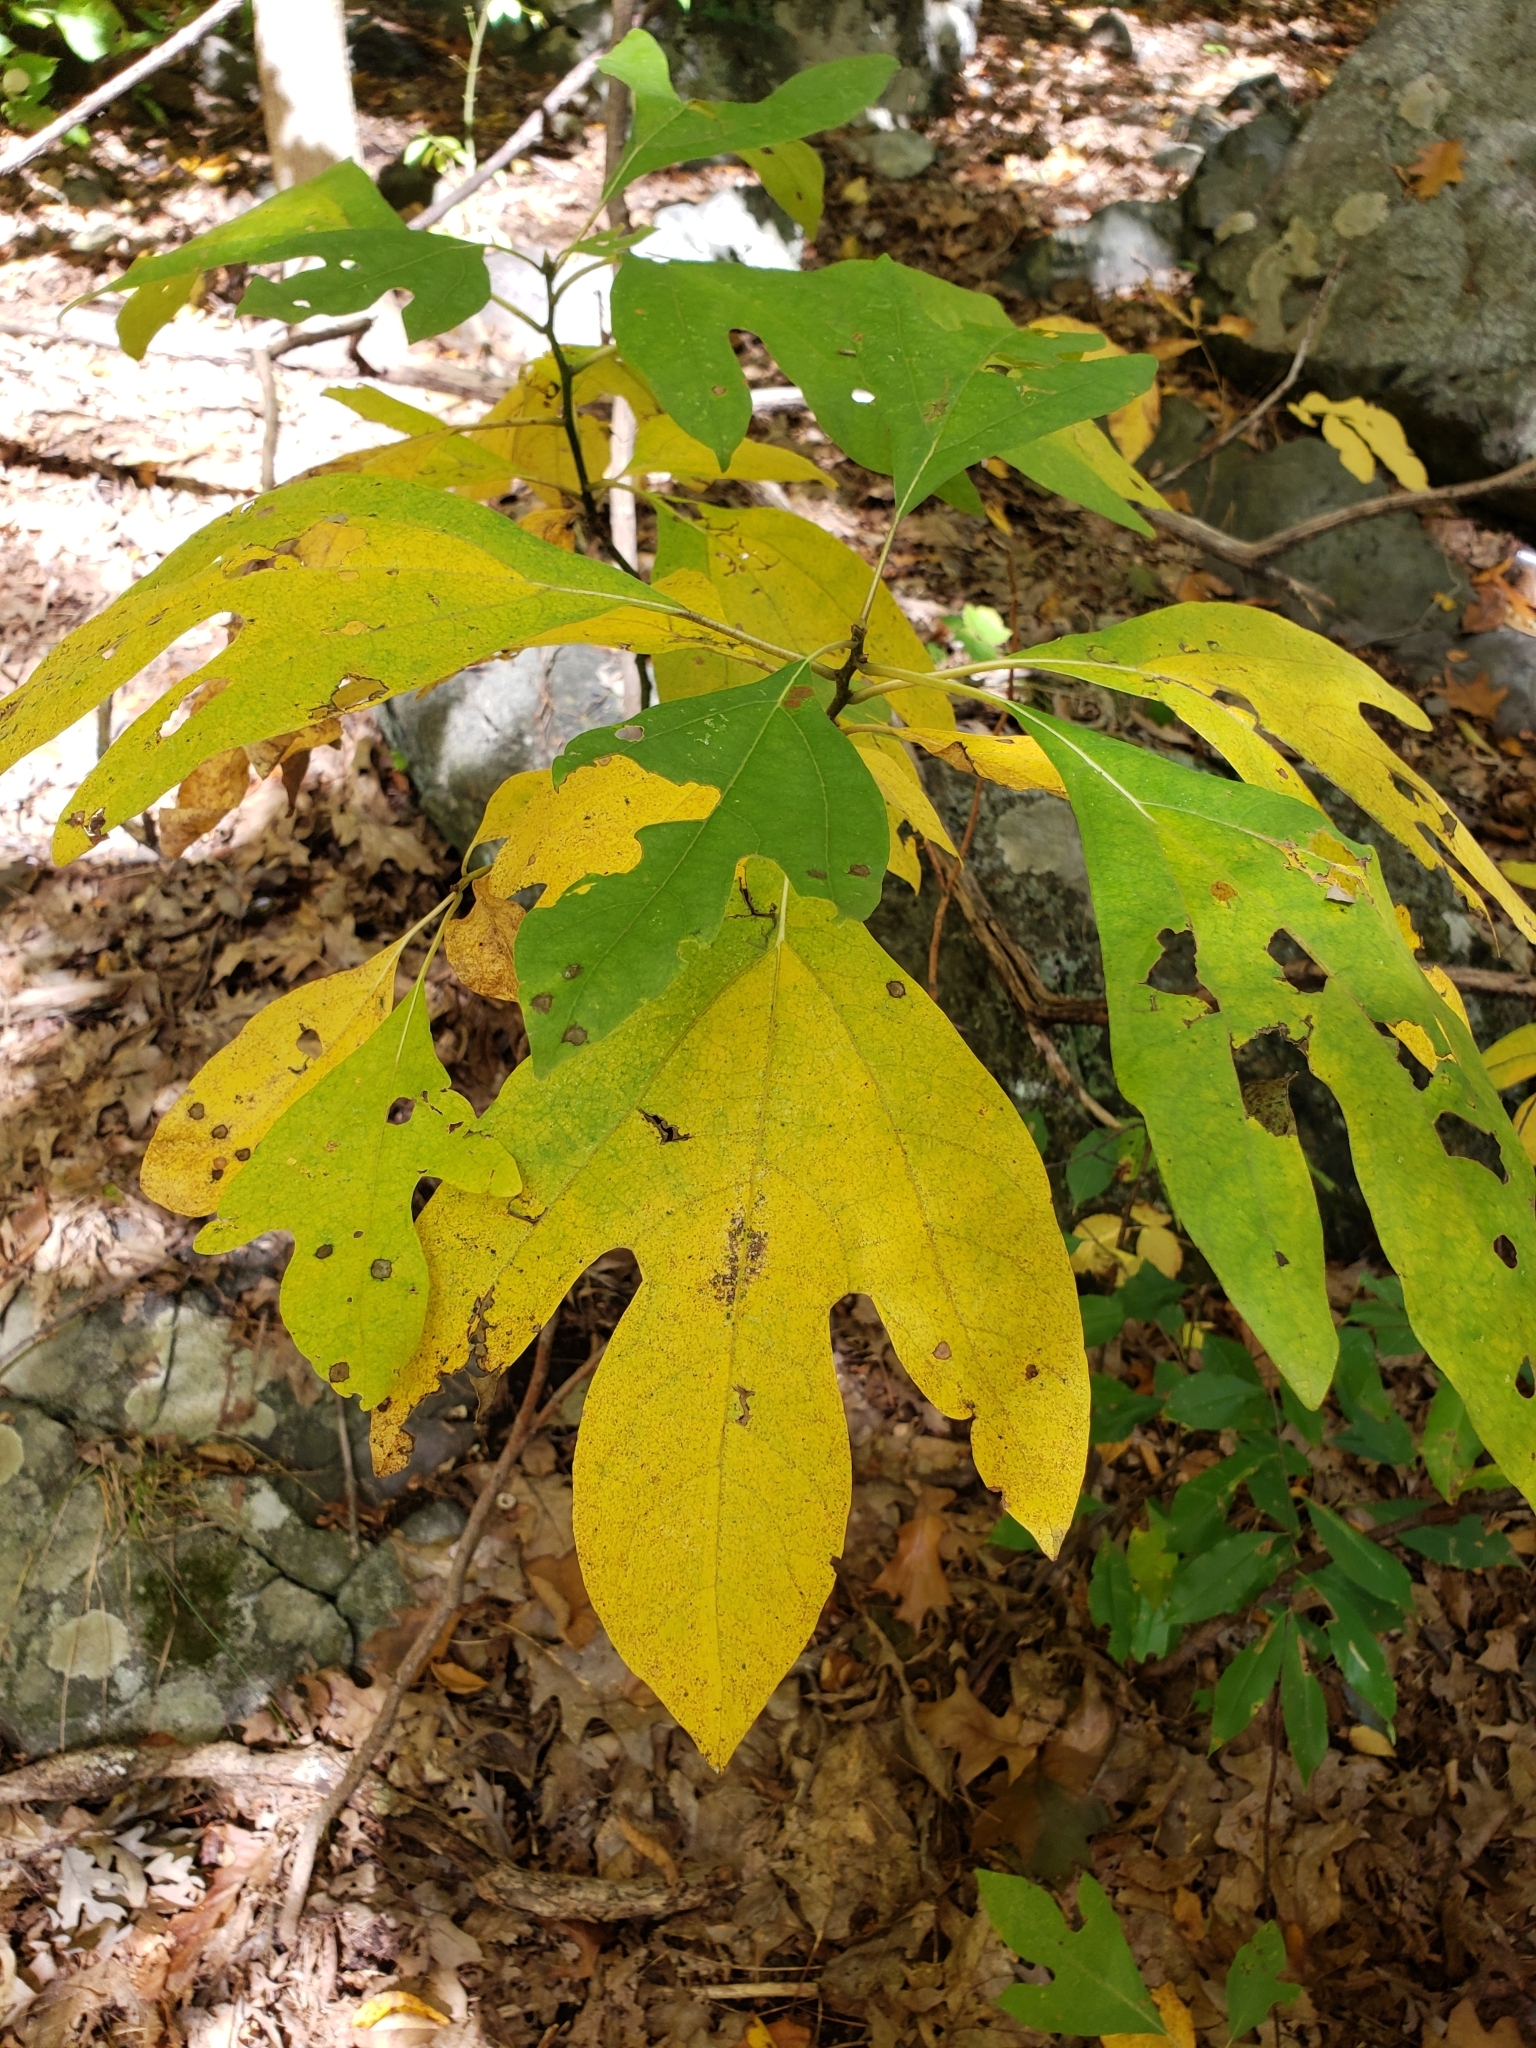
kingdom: Plantae
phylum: Tracheophyta
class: Magnoliopsida
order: Laurales
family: Lauraceae
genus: Sassafras
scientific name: Sassafras albidum
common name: Sassafras
